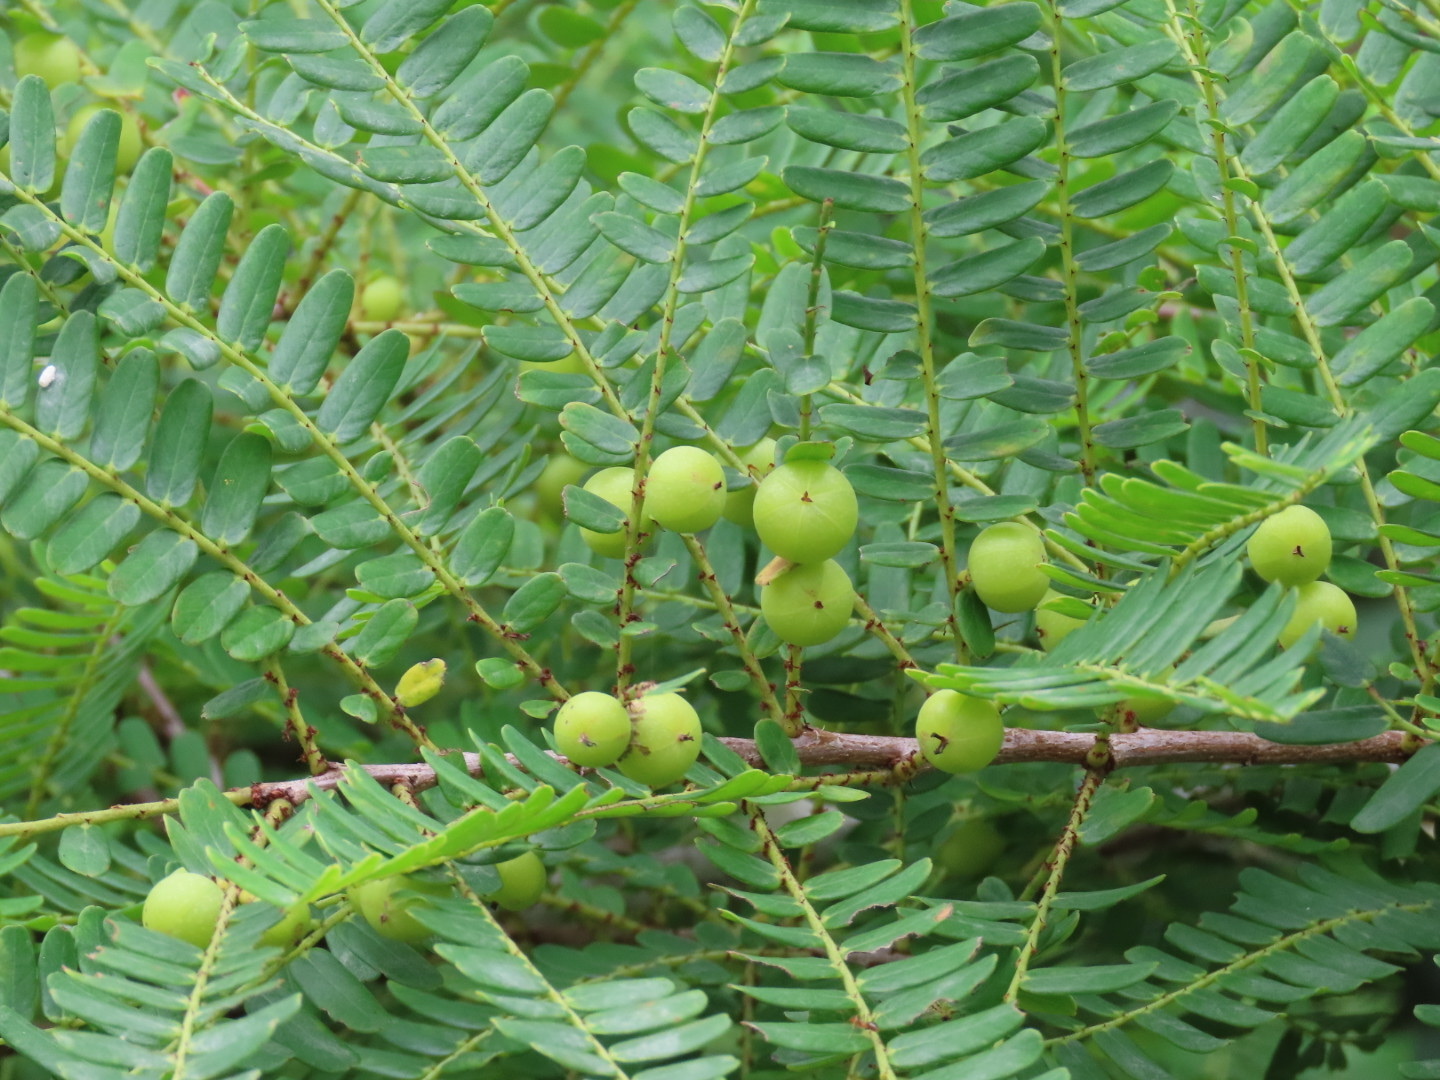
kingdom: Plantae
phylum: Tracheophyta
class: Magnoliopsida
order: Malpighiales
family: Phyllanthaceae
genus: Phyllanthus
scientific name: Phyllanthus emblica
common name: Indian gooseberry
